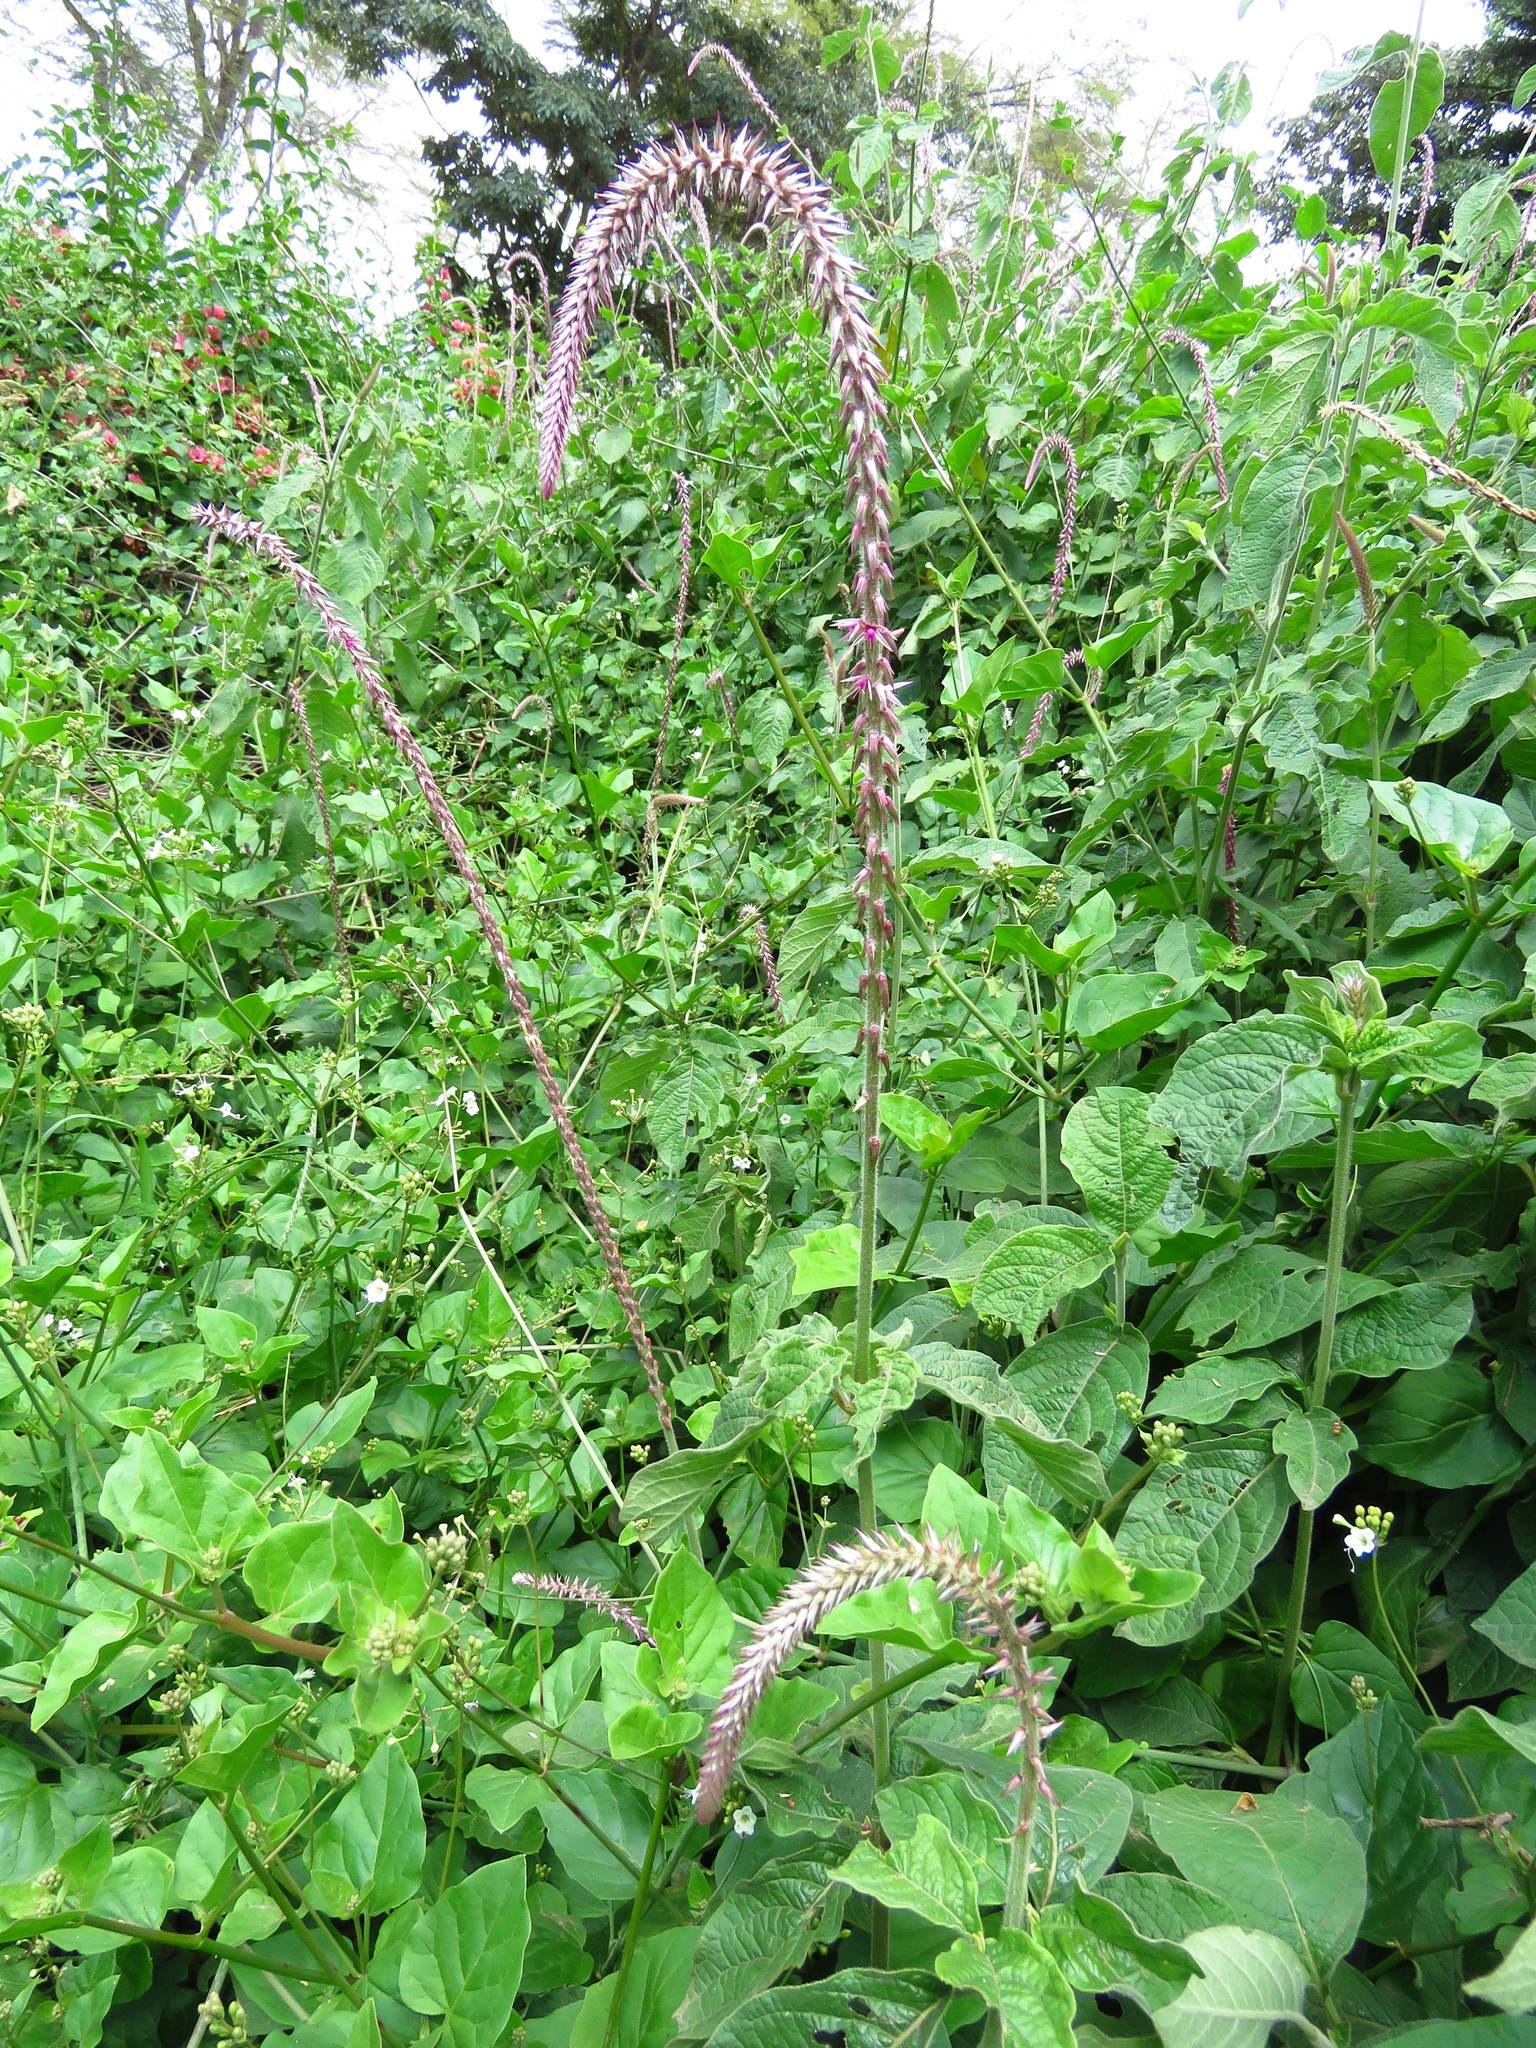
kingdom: Plantae
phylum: Tracheophyta
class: Magnoliopsida
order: Caryophyllales
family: Amaranthaceae
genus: Achyranthes
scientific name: Achyranthes aspera
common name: Devil's horsewhip
